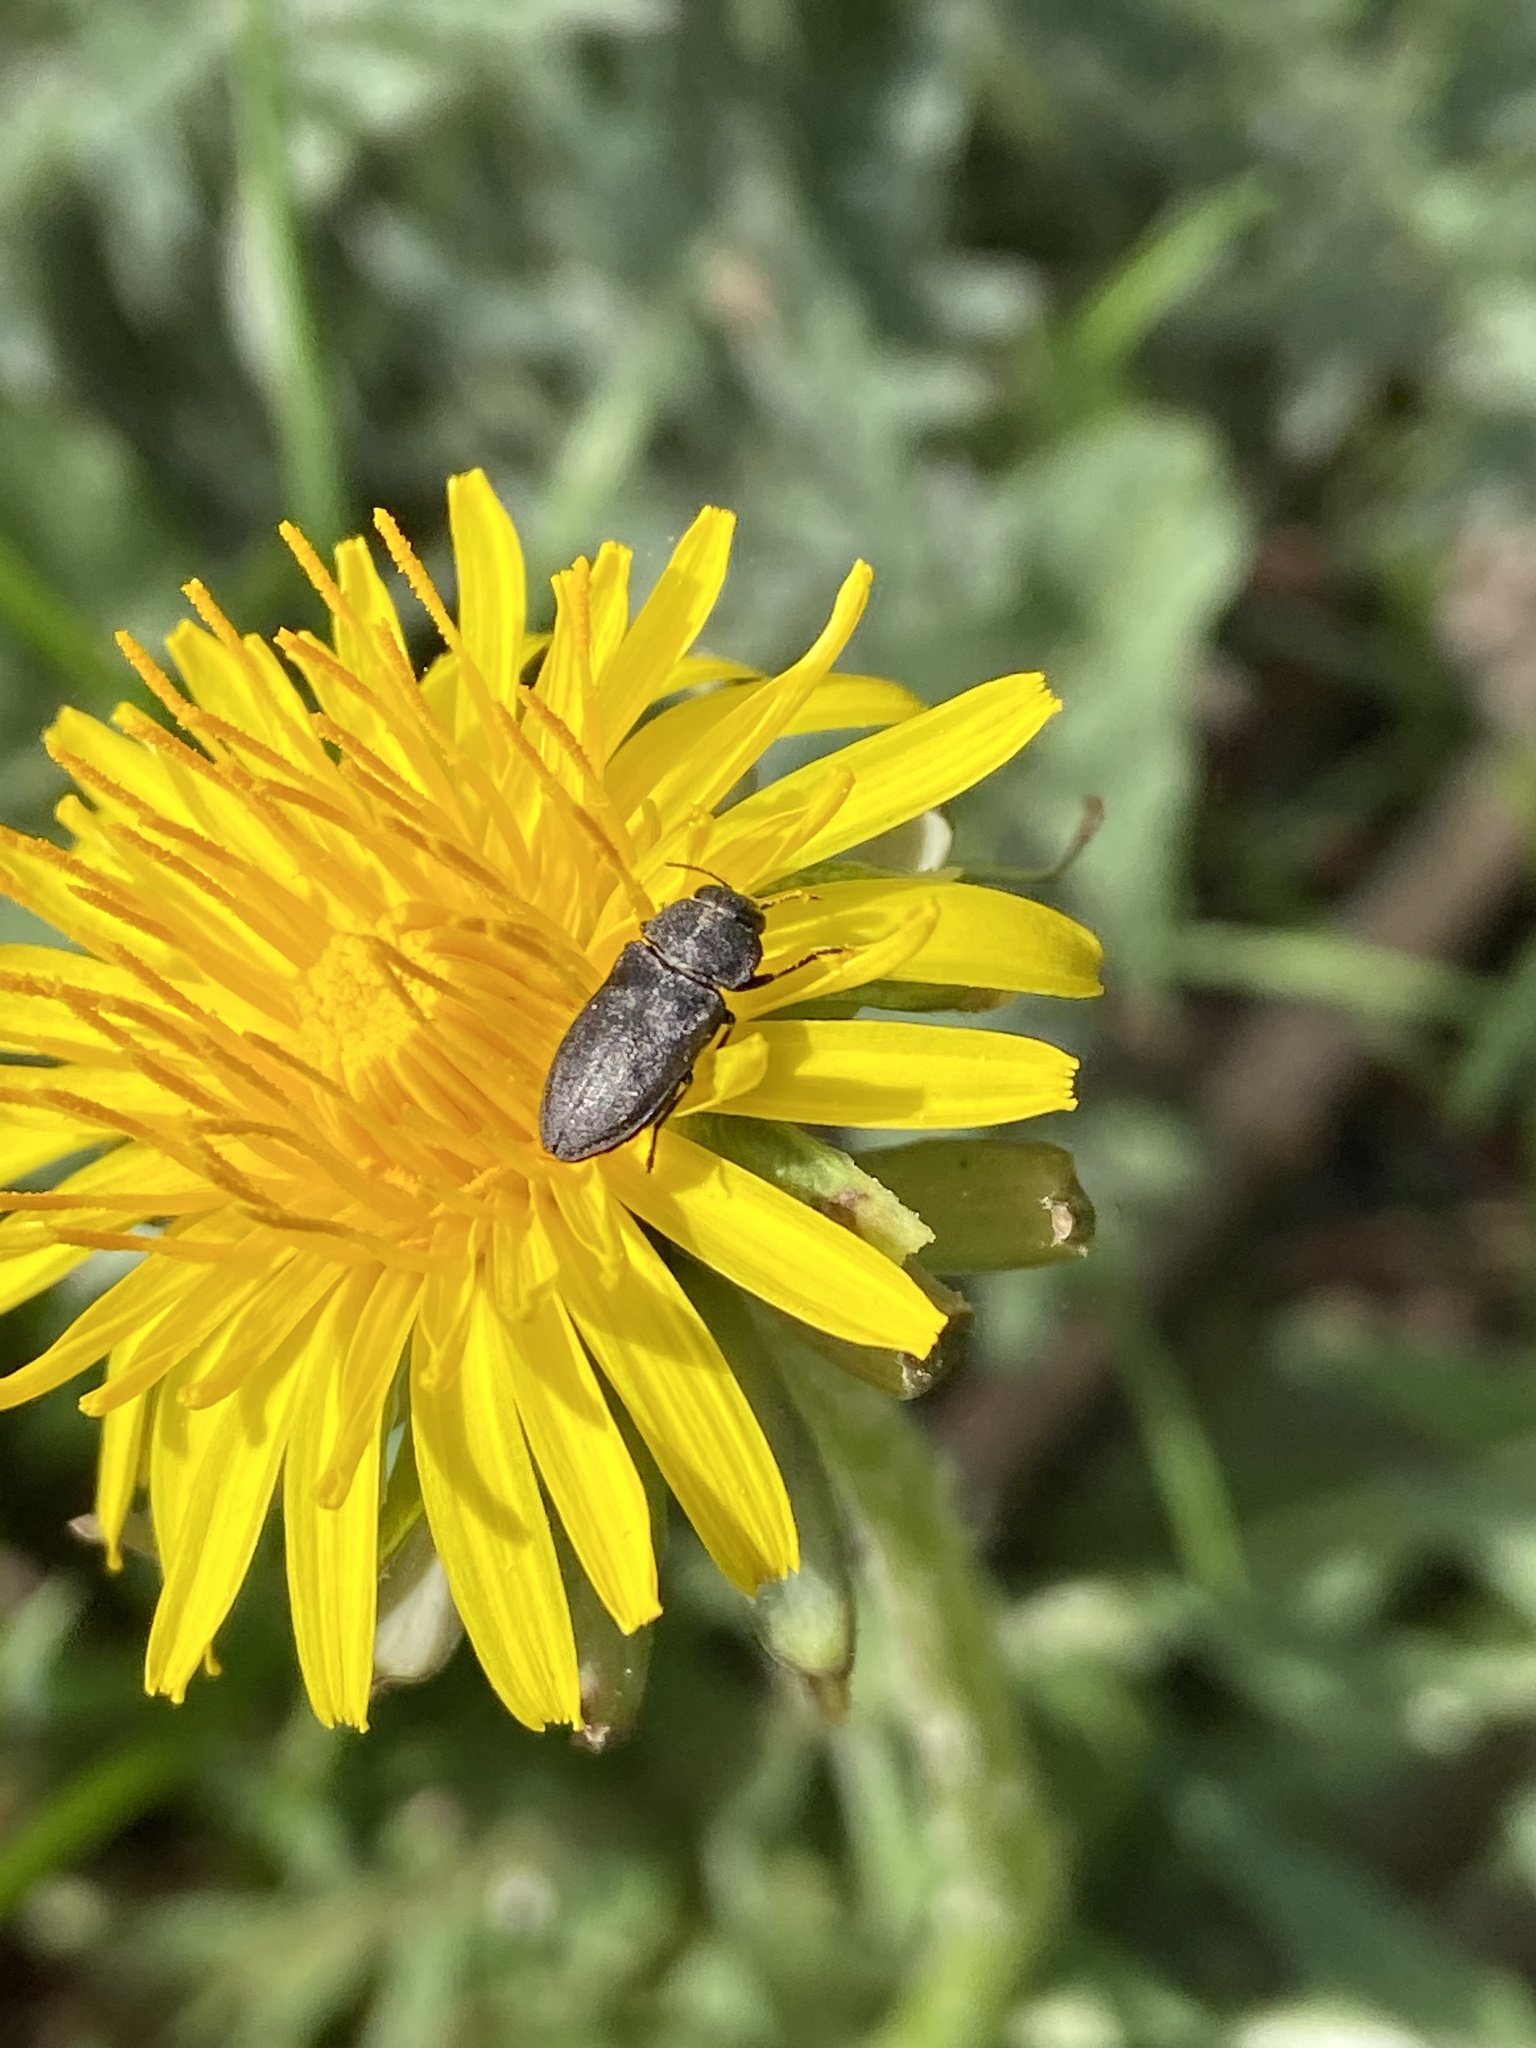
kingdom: Animalia
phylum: Arthropoda
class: Insecta
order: Coleoptera
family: Buprestidae
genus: Anthaxia
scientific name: Anthaxia helvetica
